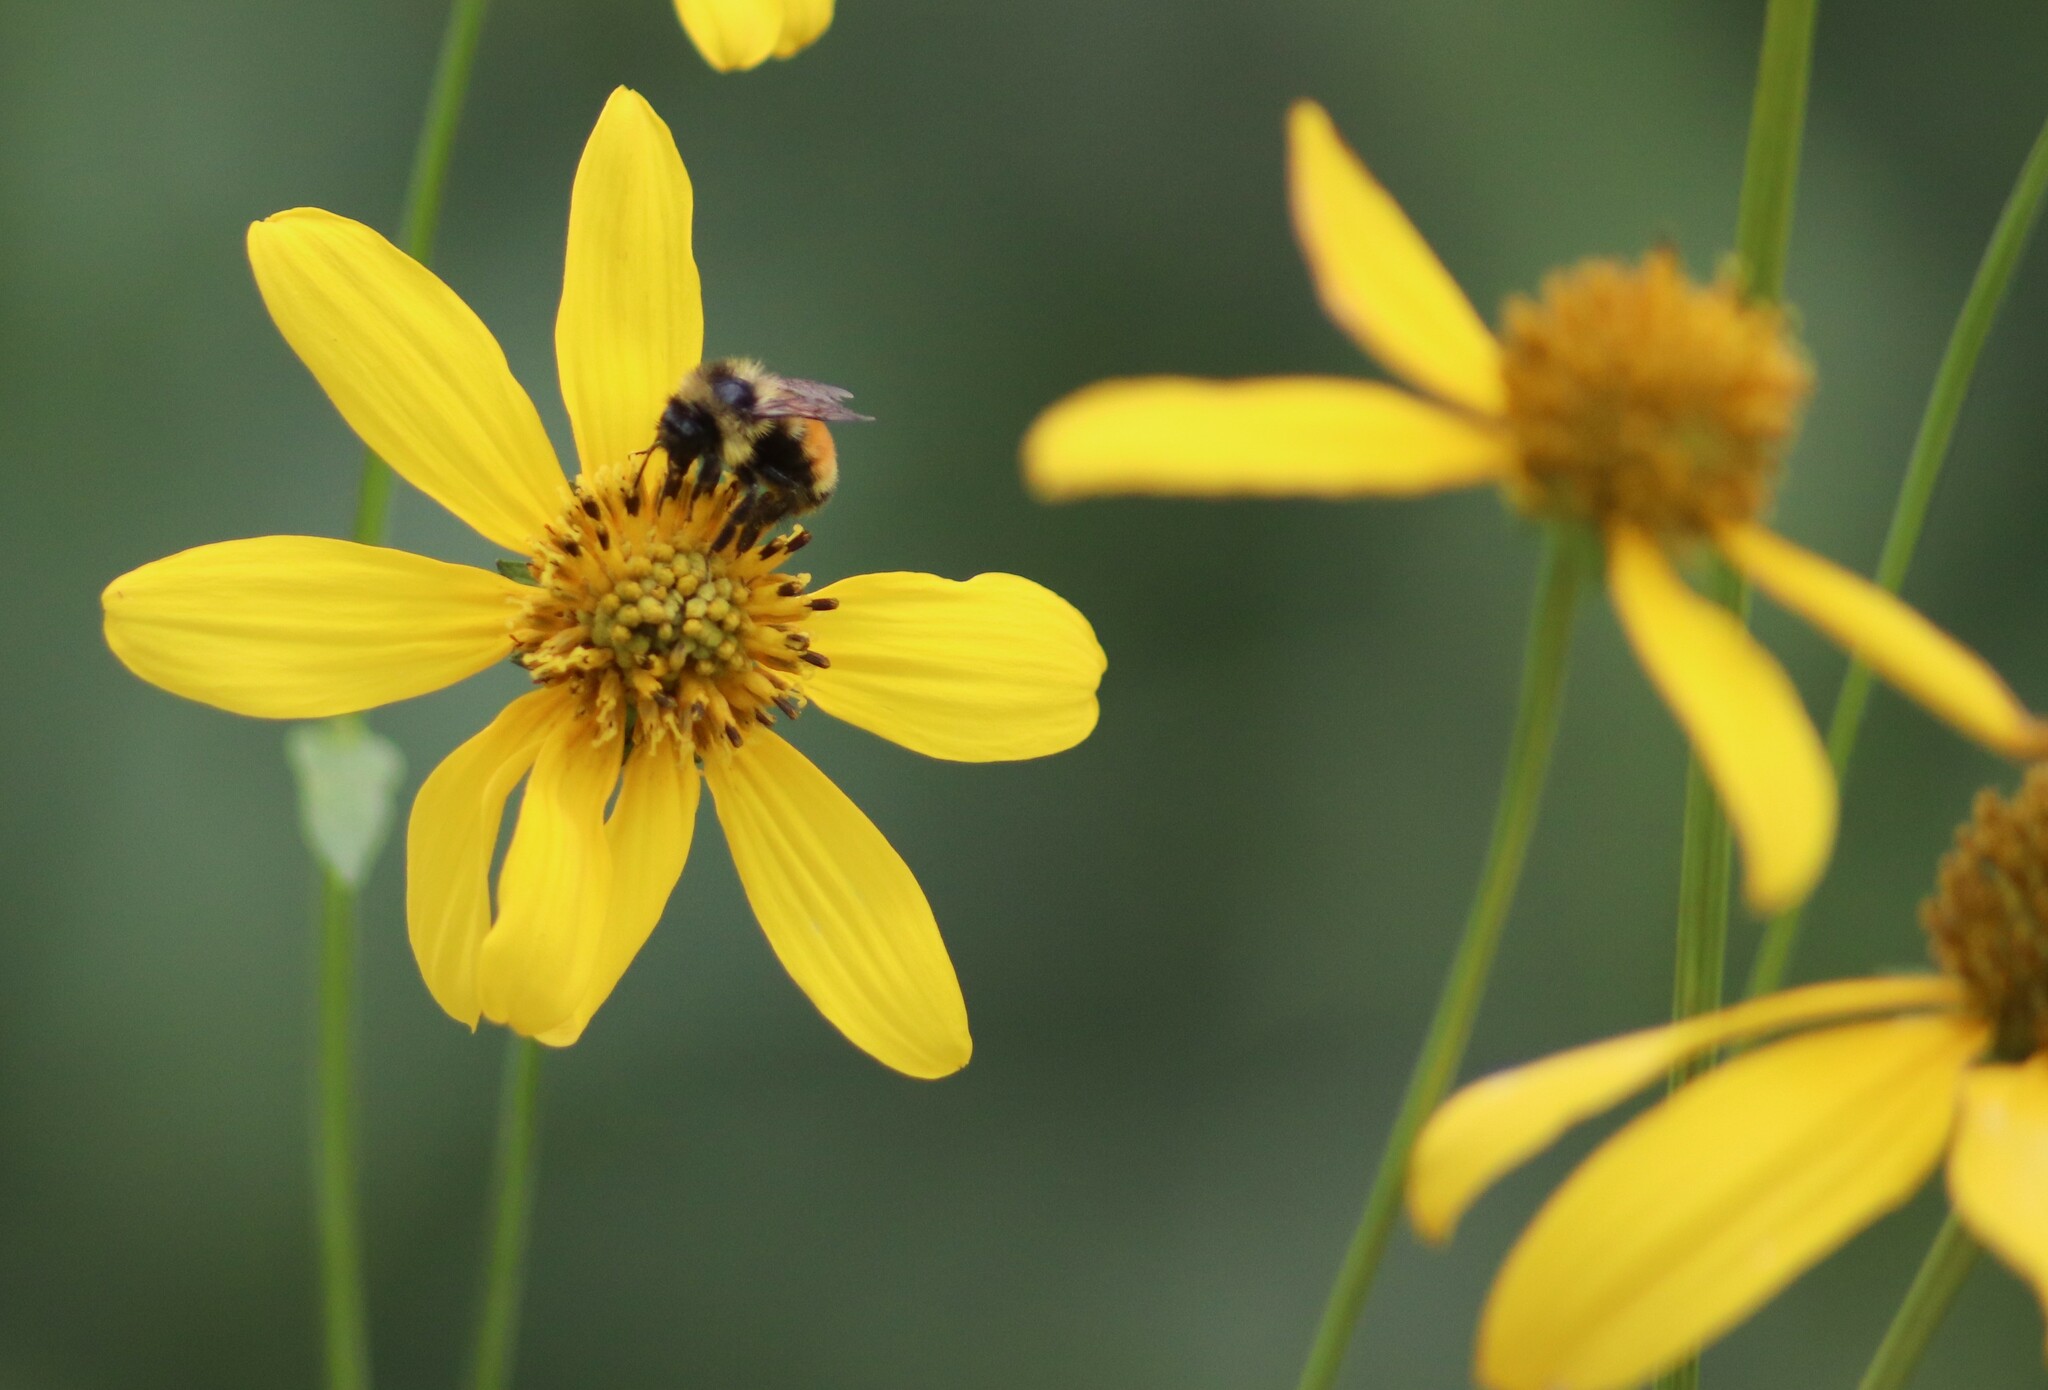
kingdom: Animalia
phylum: Arthropoda
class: Insecta
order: Hymenoptera
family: Apidae
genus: Bombus
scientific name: Bombus ternarius
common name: Tri-colored bumble bee
